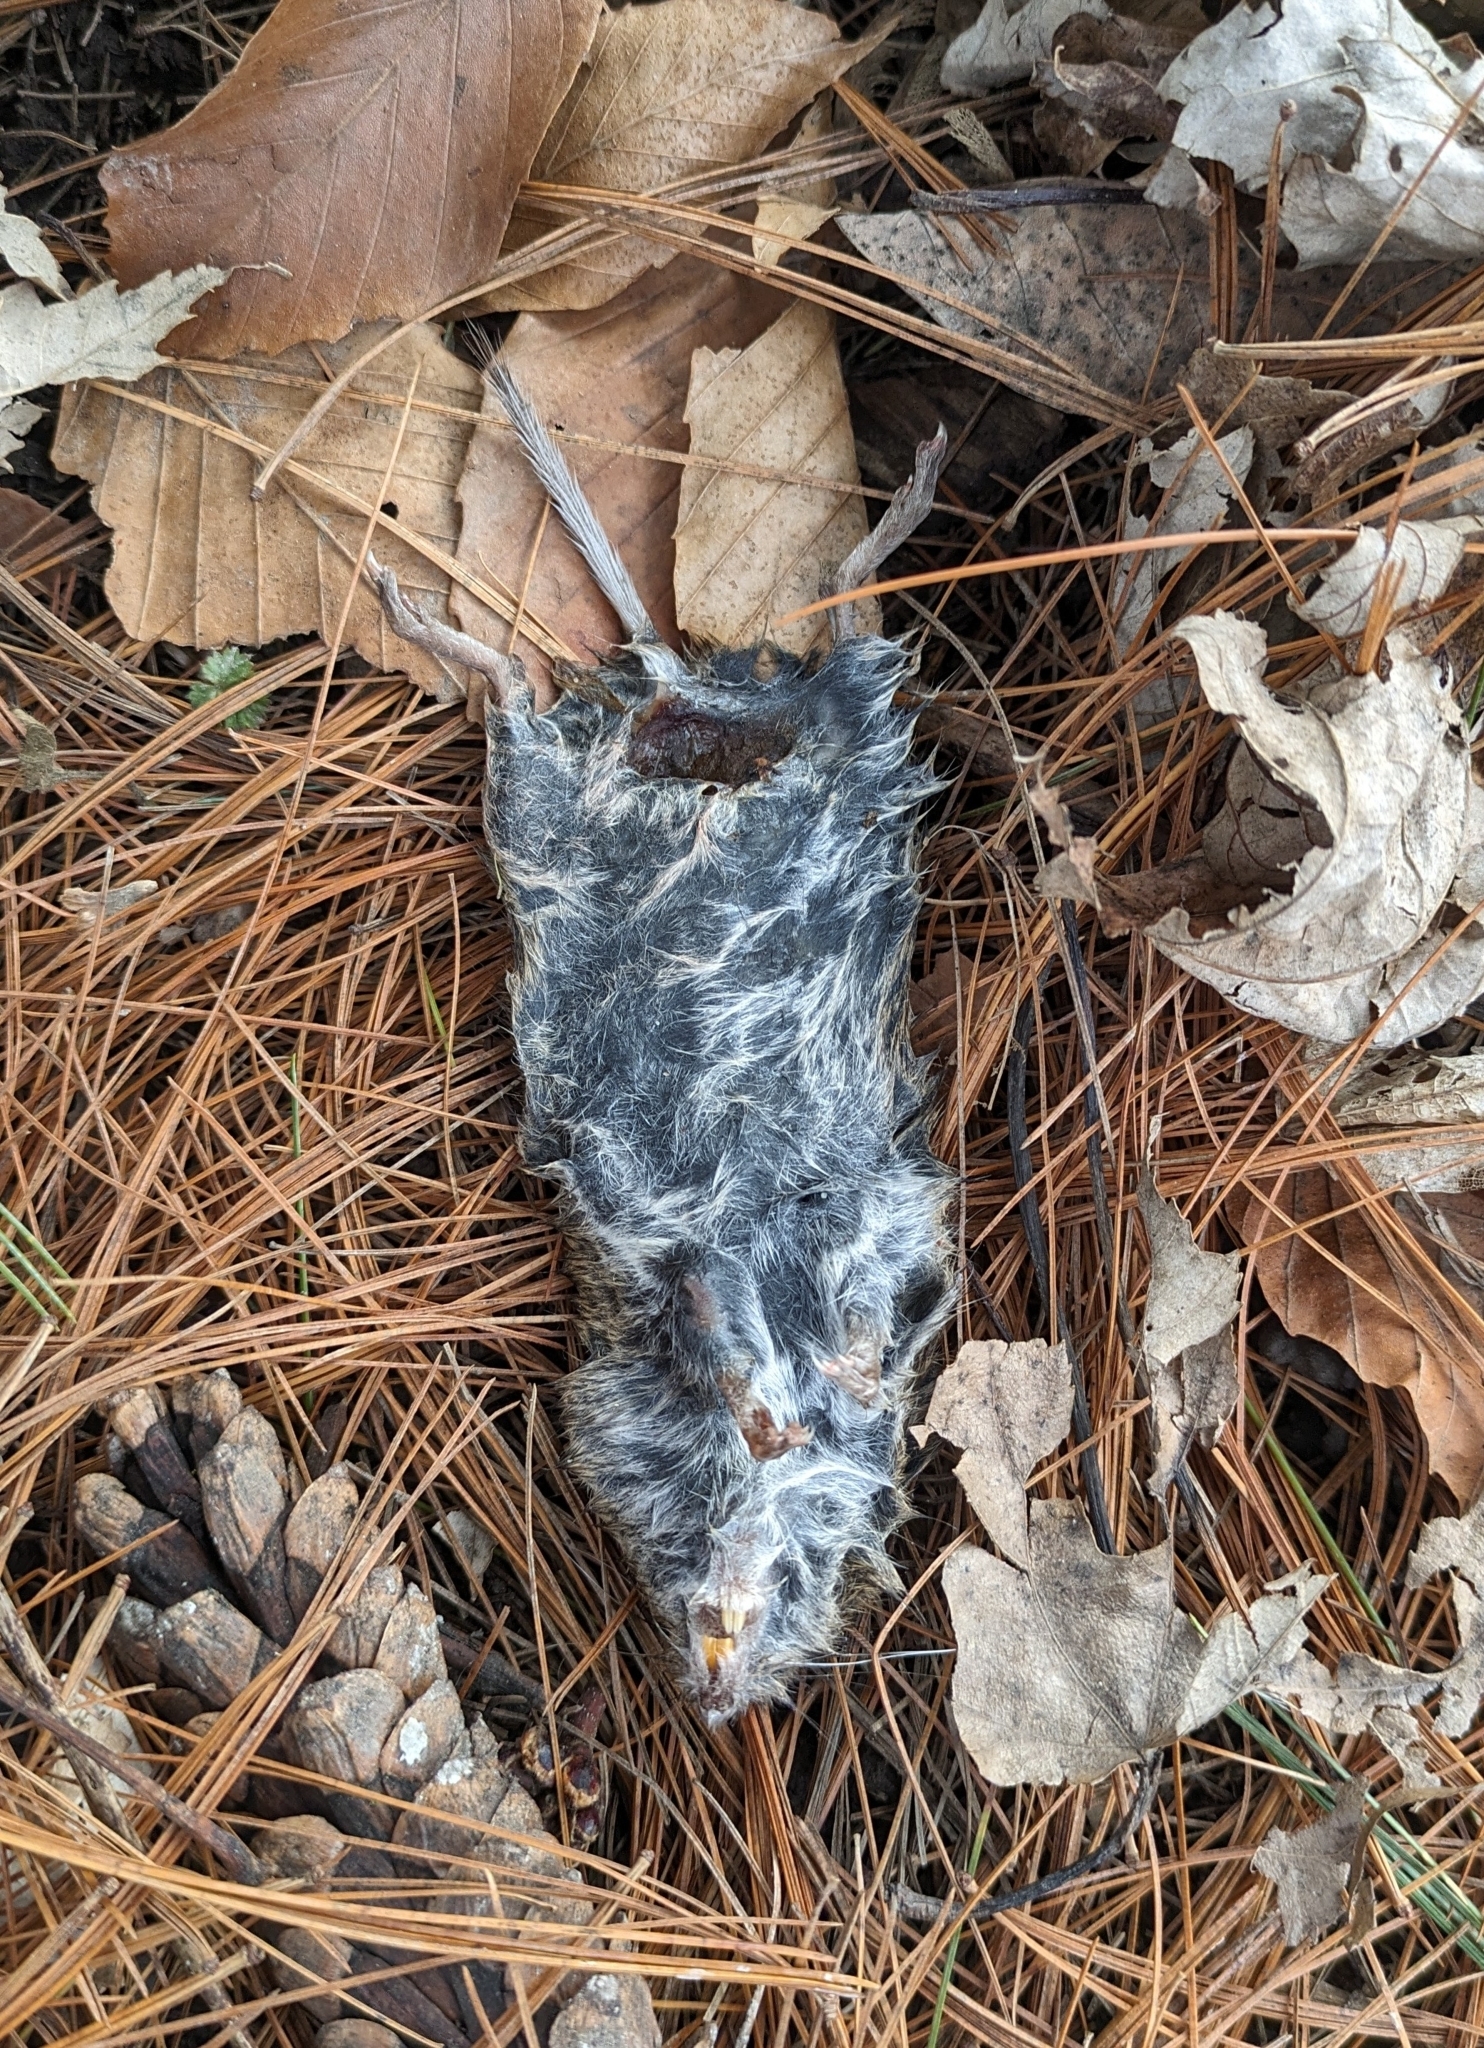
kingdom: Animalia
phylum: Chordata
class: Mammalia
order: Rodentia
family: Cricetidae
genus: Microtus
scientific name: Microtus pennsylvanicus
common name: Meadow vole
